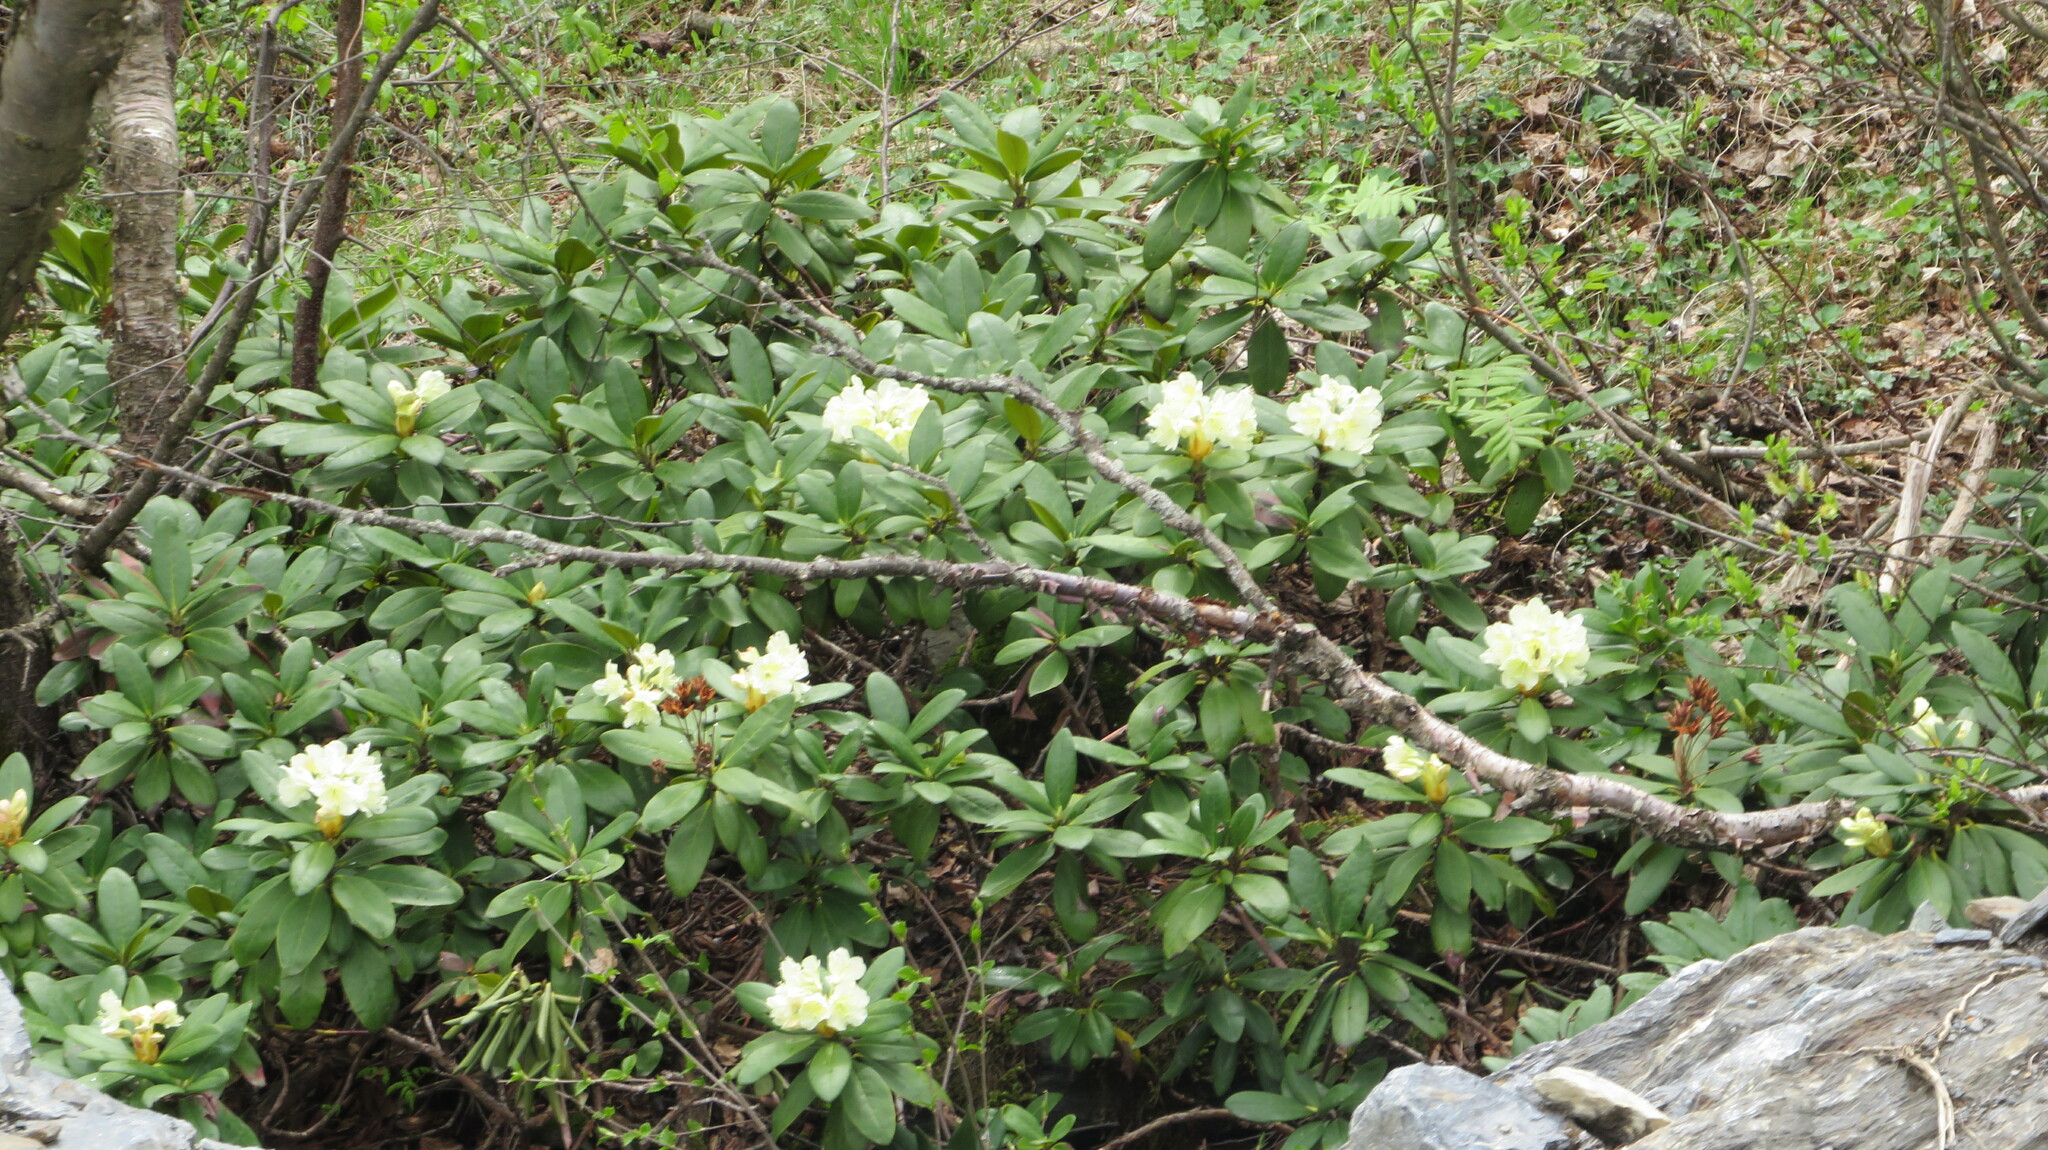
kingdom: Plantae
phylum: Tracheophyta
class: Magnoliopsida
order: Ericales
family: Ericaceae
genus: Rhododendron
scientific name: Rhododendron caucasicum
